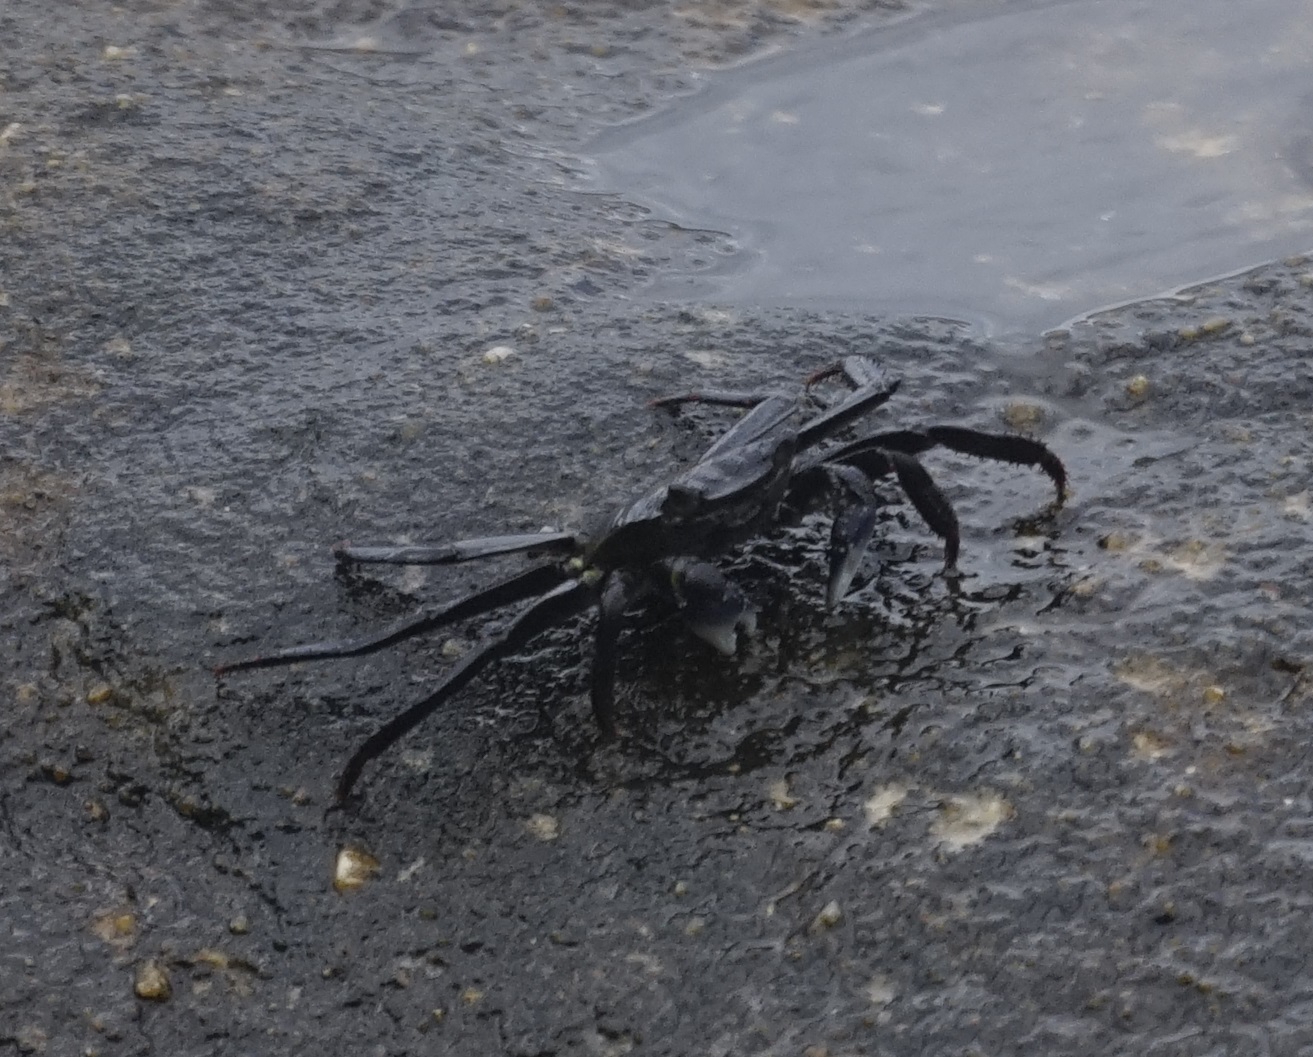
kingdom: Animalia
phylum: Arthropoda
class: Malacostraca
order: Decapoda
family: Grapsidae
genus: Leptograpsus
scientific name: Leptograpsus variegatus
